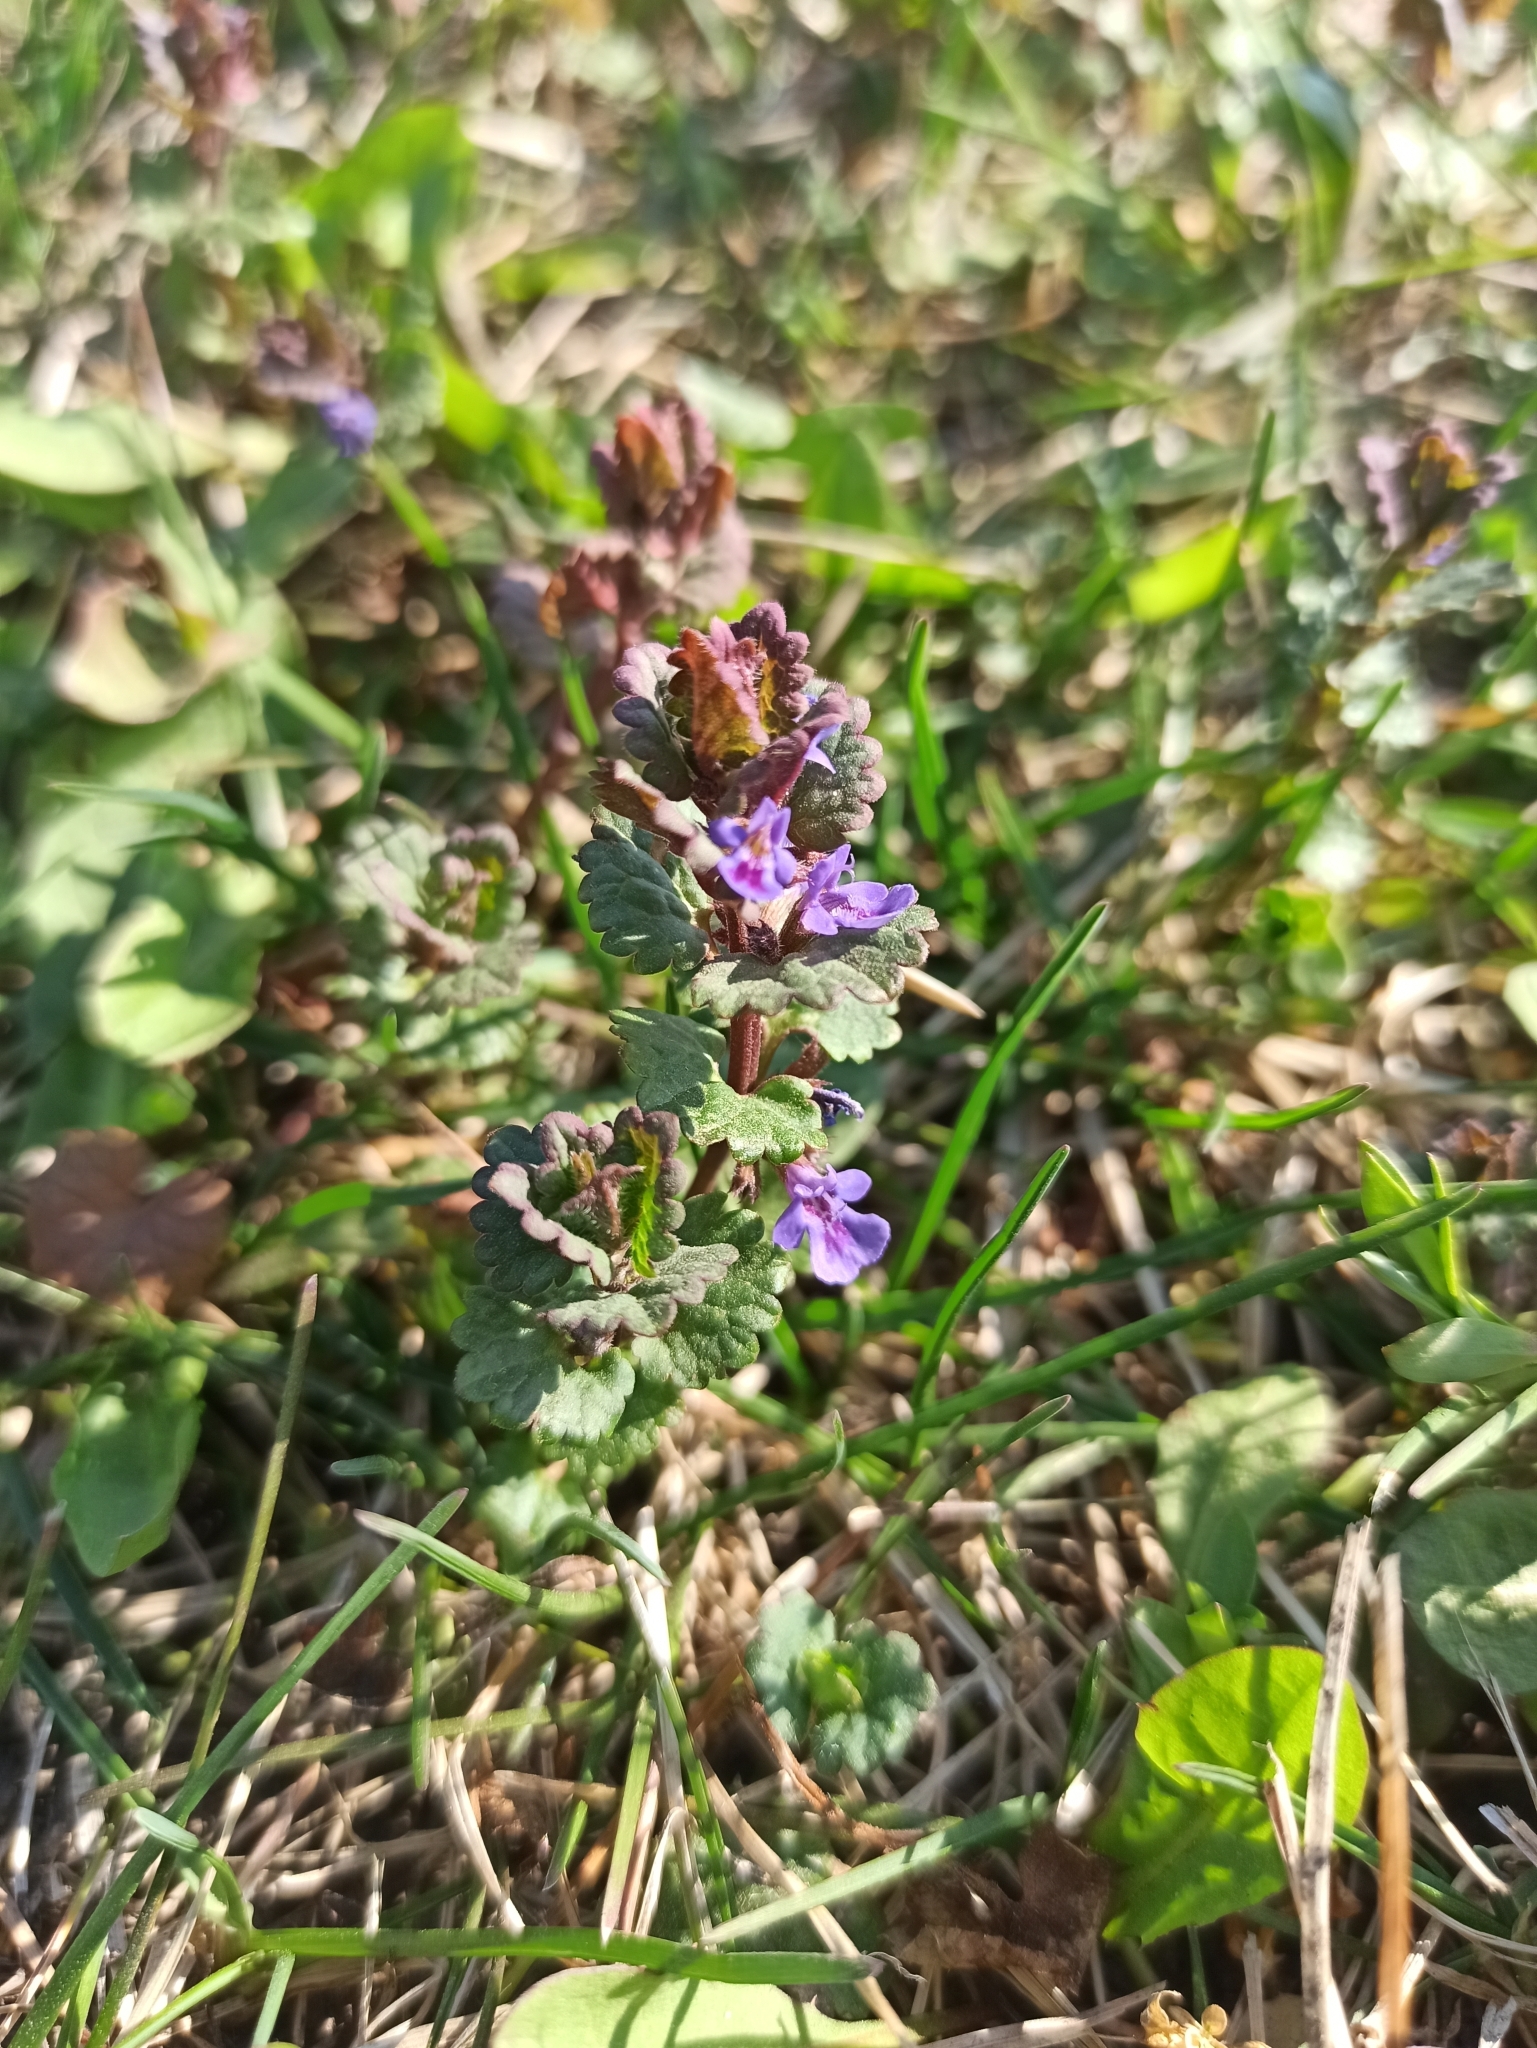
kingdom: Plantae
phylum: Tracheophyta
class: Magnoliopsida
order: Lamiales
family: Lamiaceae
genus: Glechoma
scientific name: Glechoma hederacea
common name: Ground ivy
